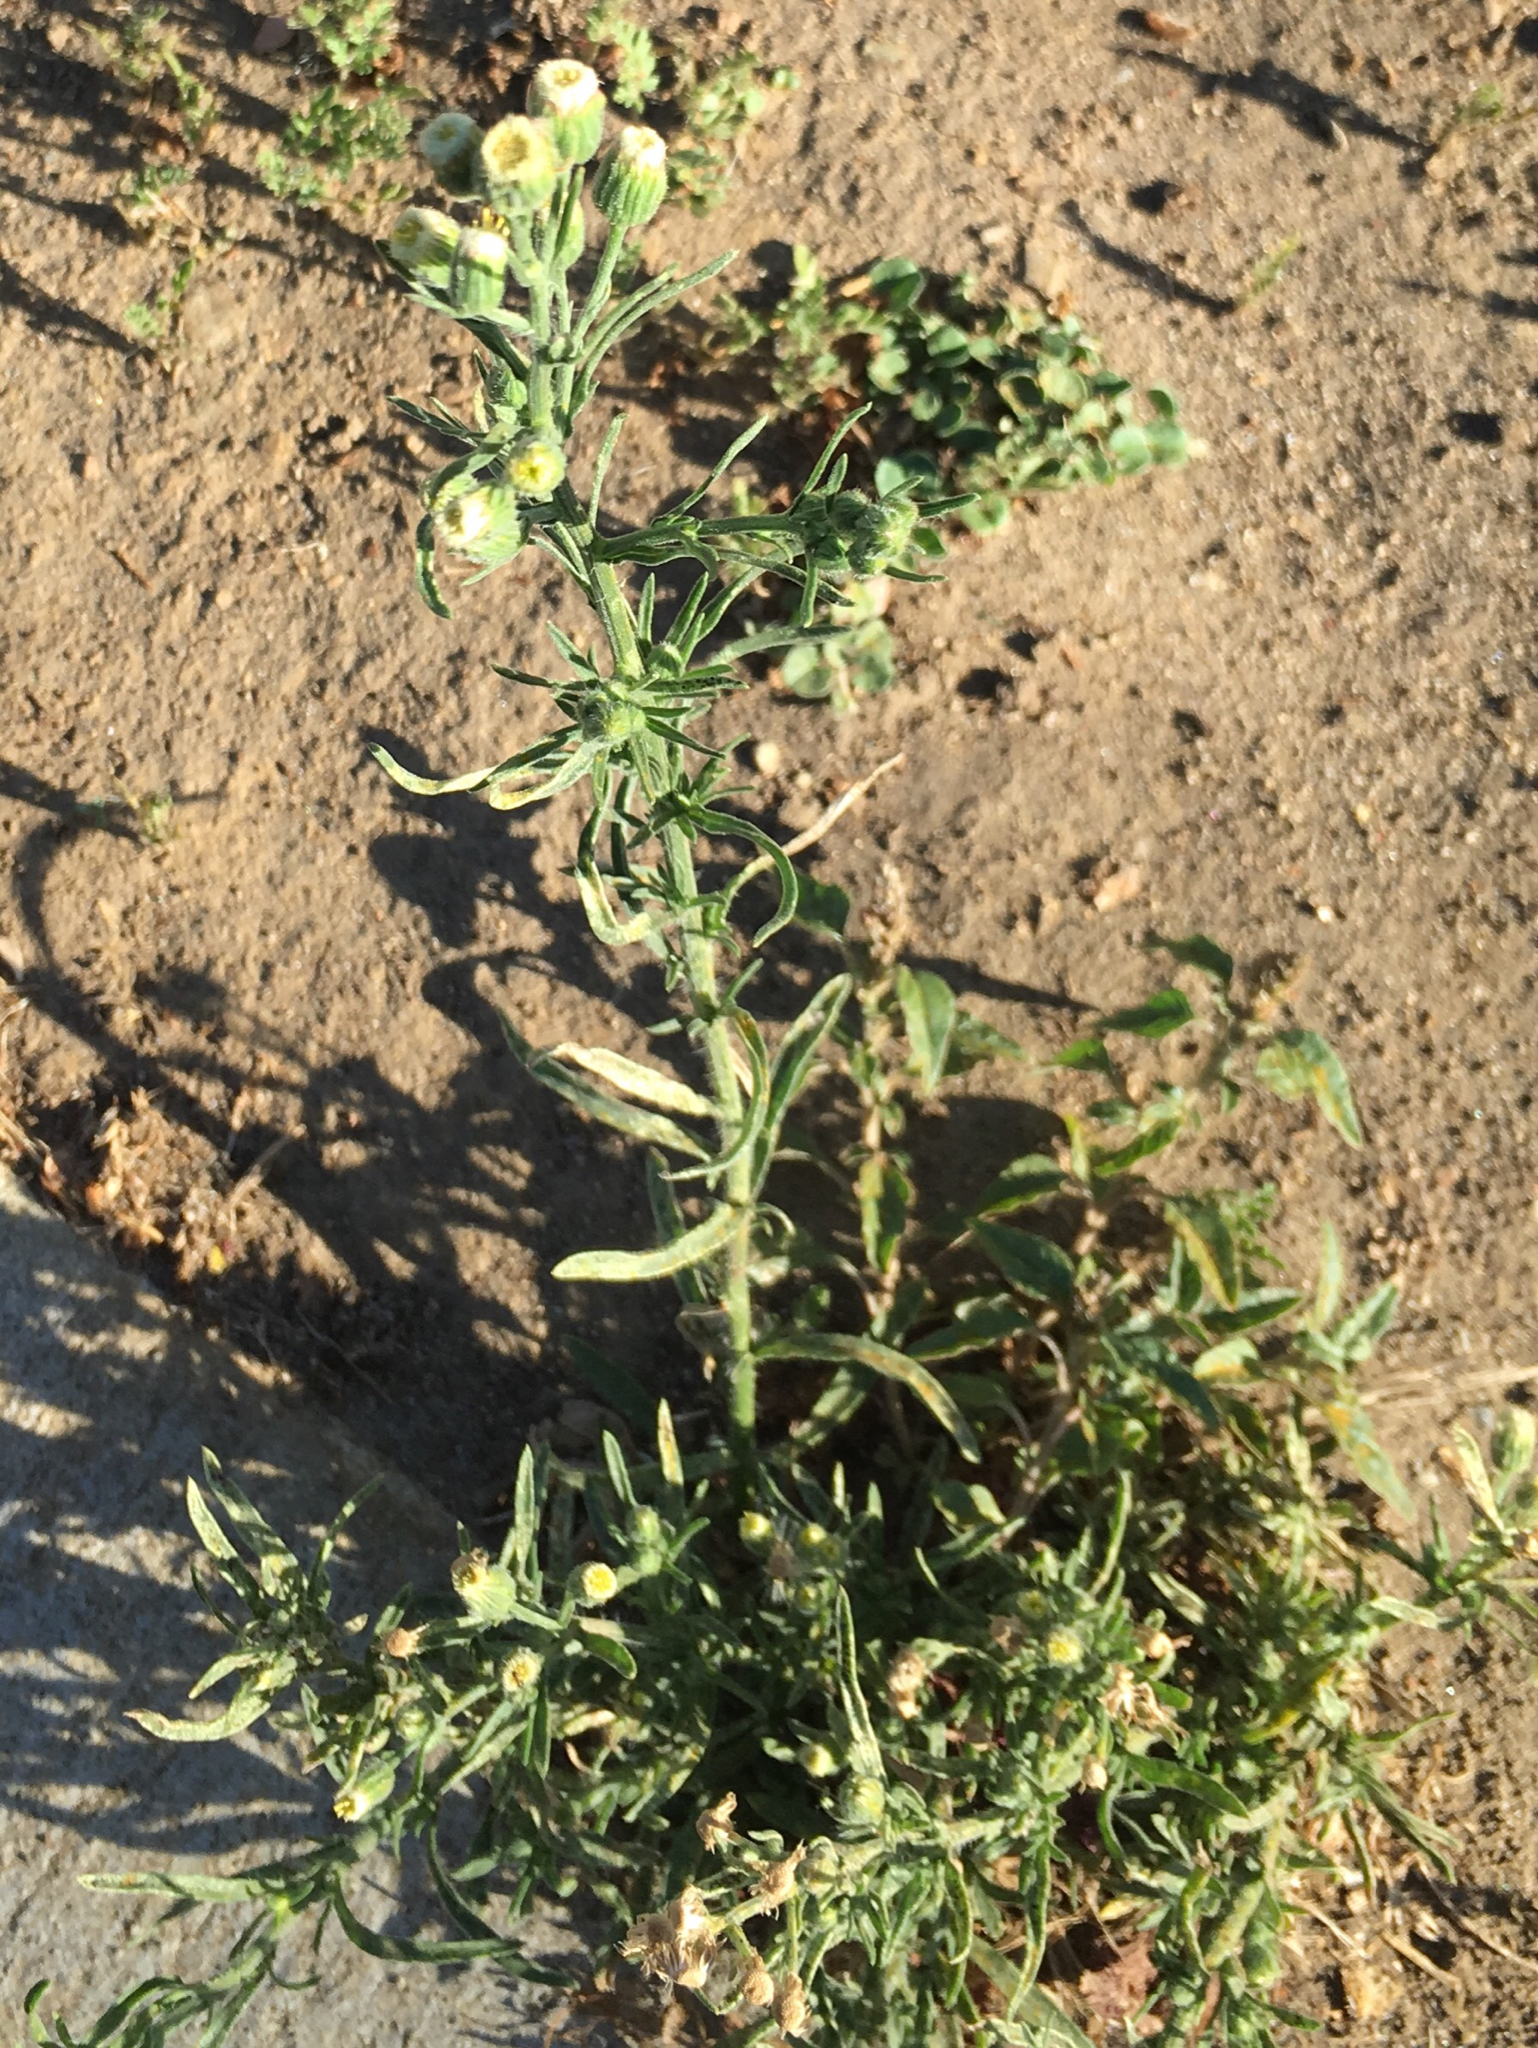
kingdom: Plantae
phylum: Tracheophyta
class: Magnoliopsida
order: Asterales
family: Asteraceae
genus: Erigeron
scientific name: Erigeron bonariensis
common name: Argentine fleabane
